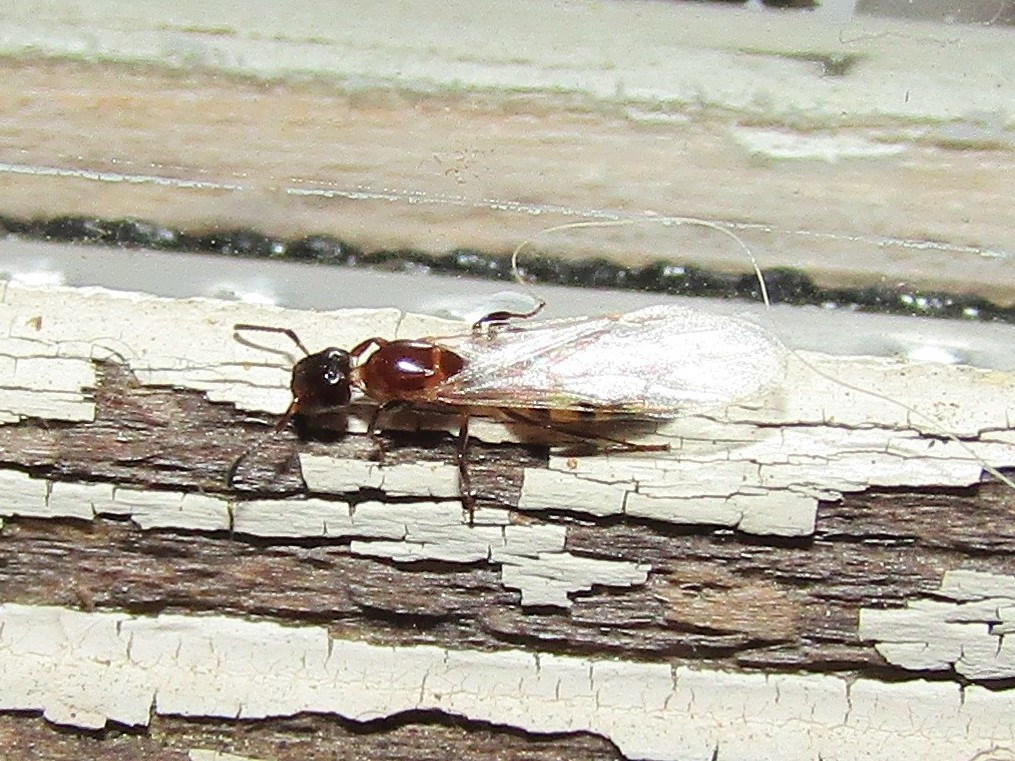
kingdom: Animalia
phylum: Arthropoda
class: Insecta
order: Hymenoptera
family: Formicidae
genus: Colobopsis
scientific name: Colobopsis impressa
